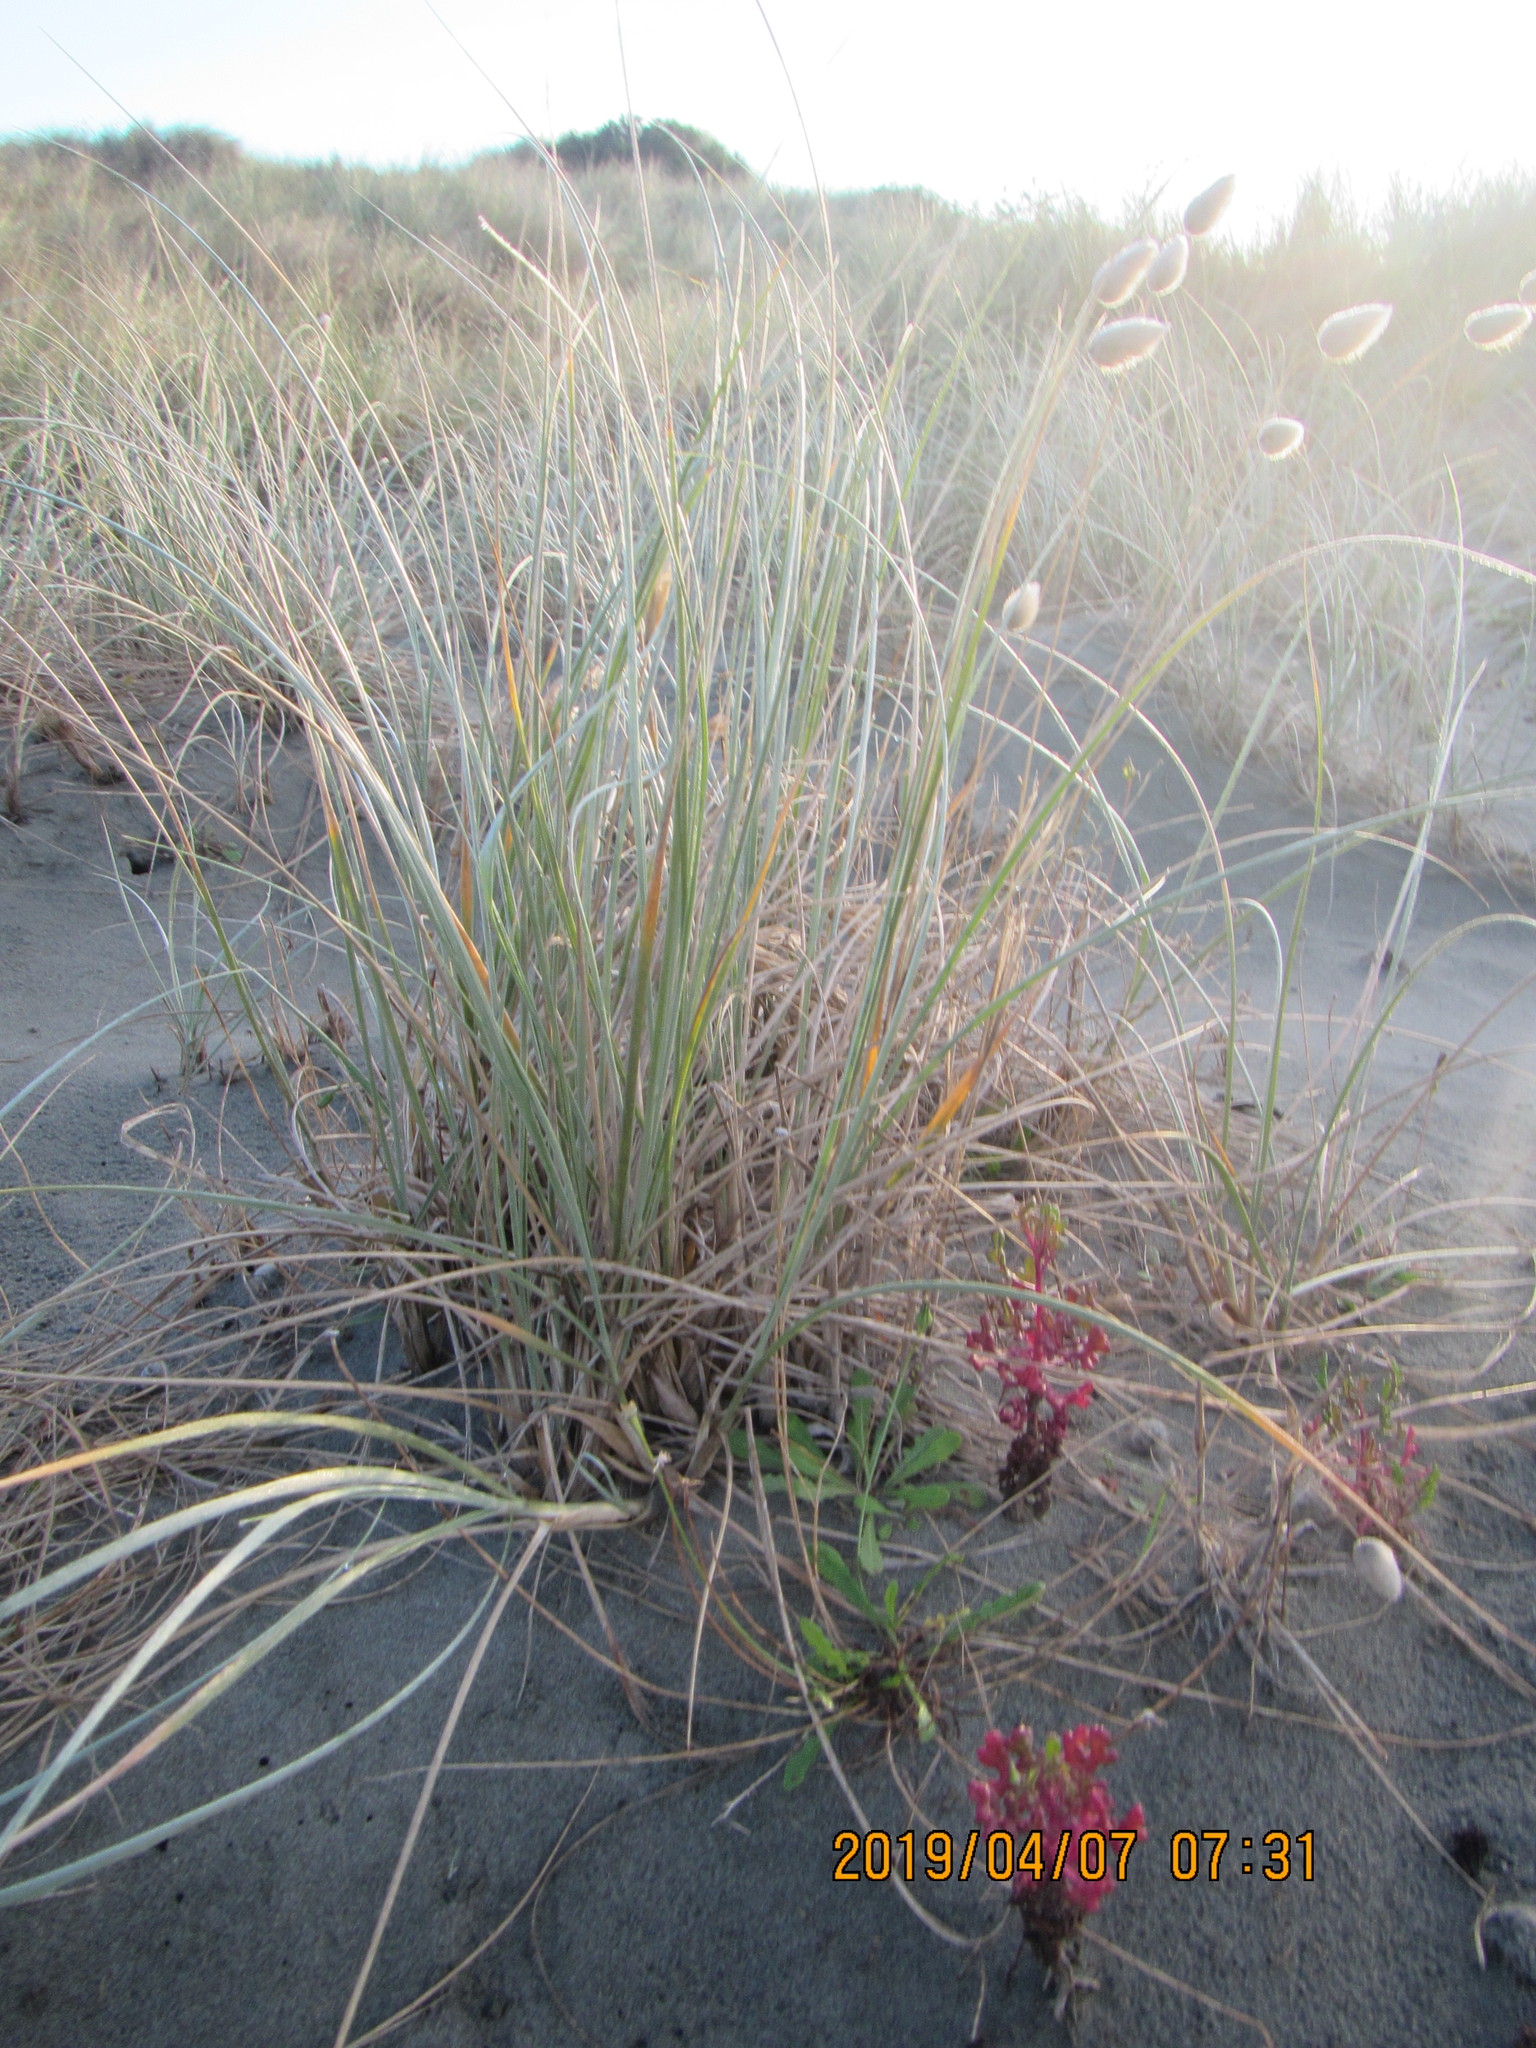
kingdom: Plantae
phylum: Tracheophyta
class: Liliopsida
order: Poales
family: Poaceae
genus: Spinifex
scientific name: Spinifex sericeus
